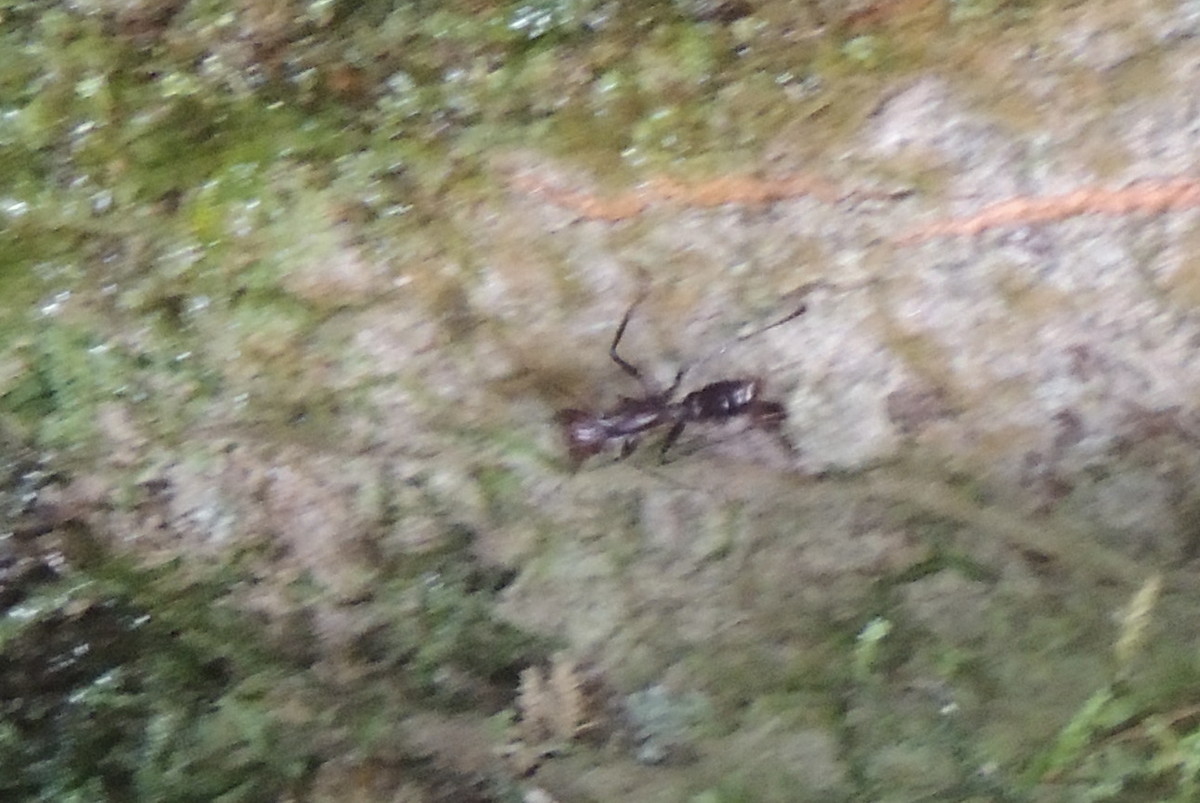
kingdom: Animalia
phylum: Arthropoda
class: Insecta
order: Hymenoptera
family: Formicidae
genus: Paraponera
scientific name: Paraponera clavata
